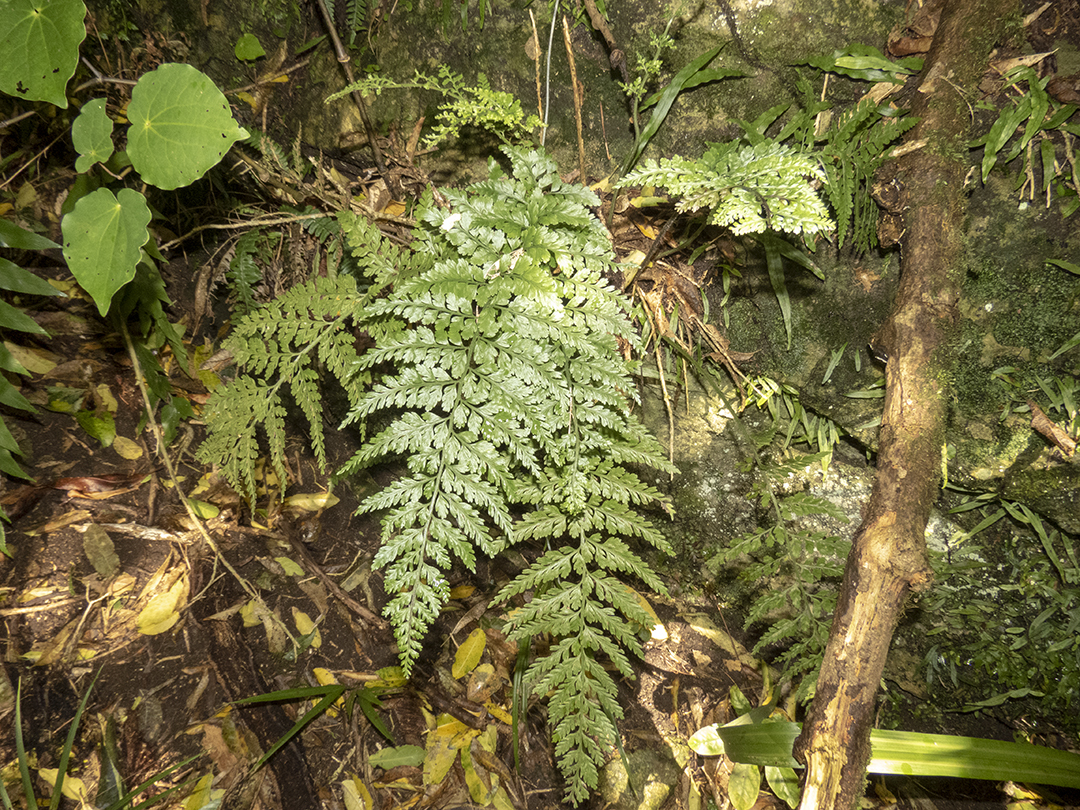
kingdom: Plantae
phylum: Tracheophyta
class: Polypodiopsida
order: Polypodiales
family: Aspleniaceae
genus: Asplenium
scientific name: Asplenium
